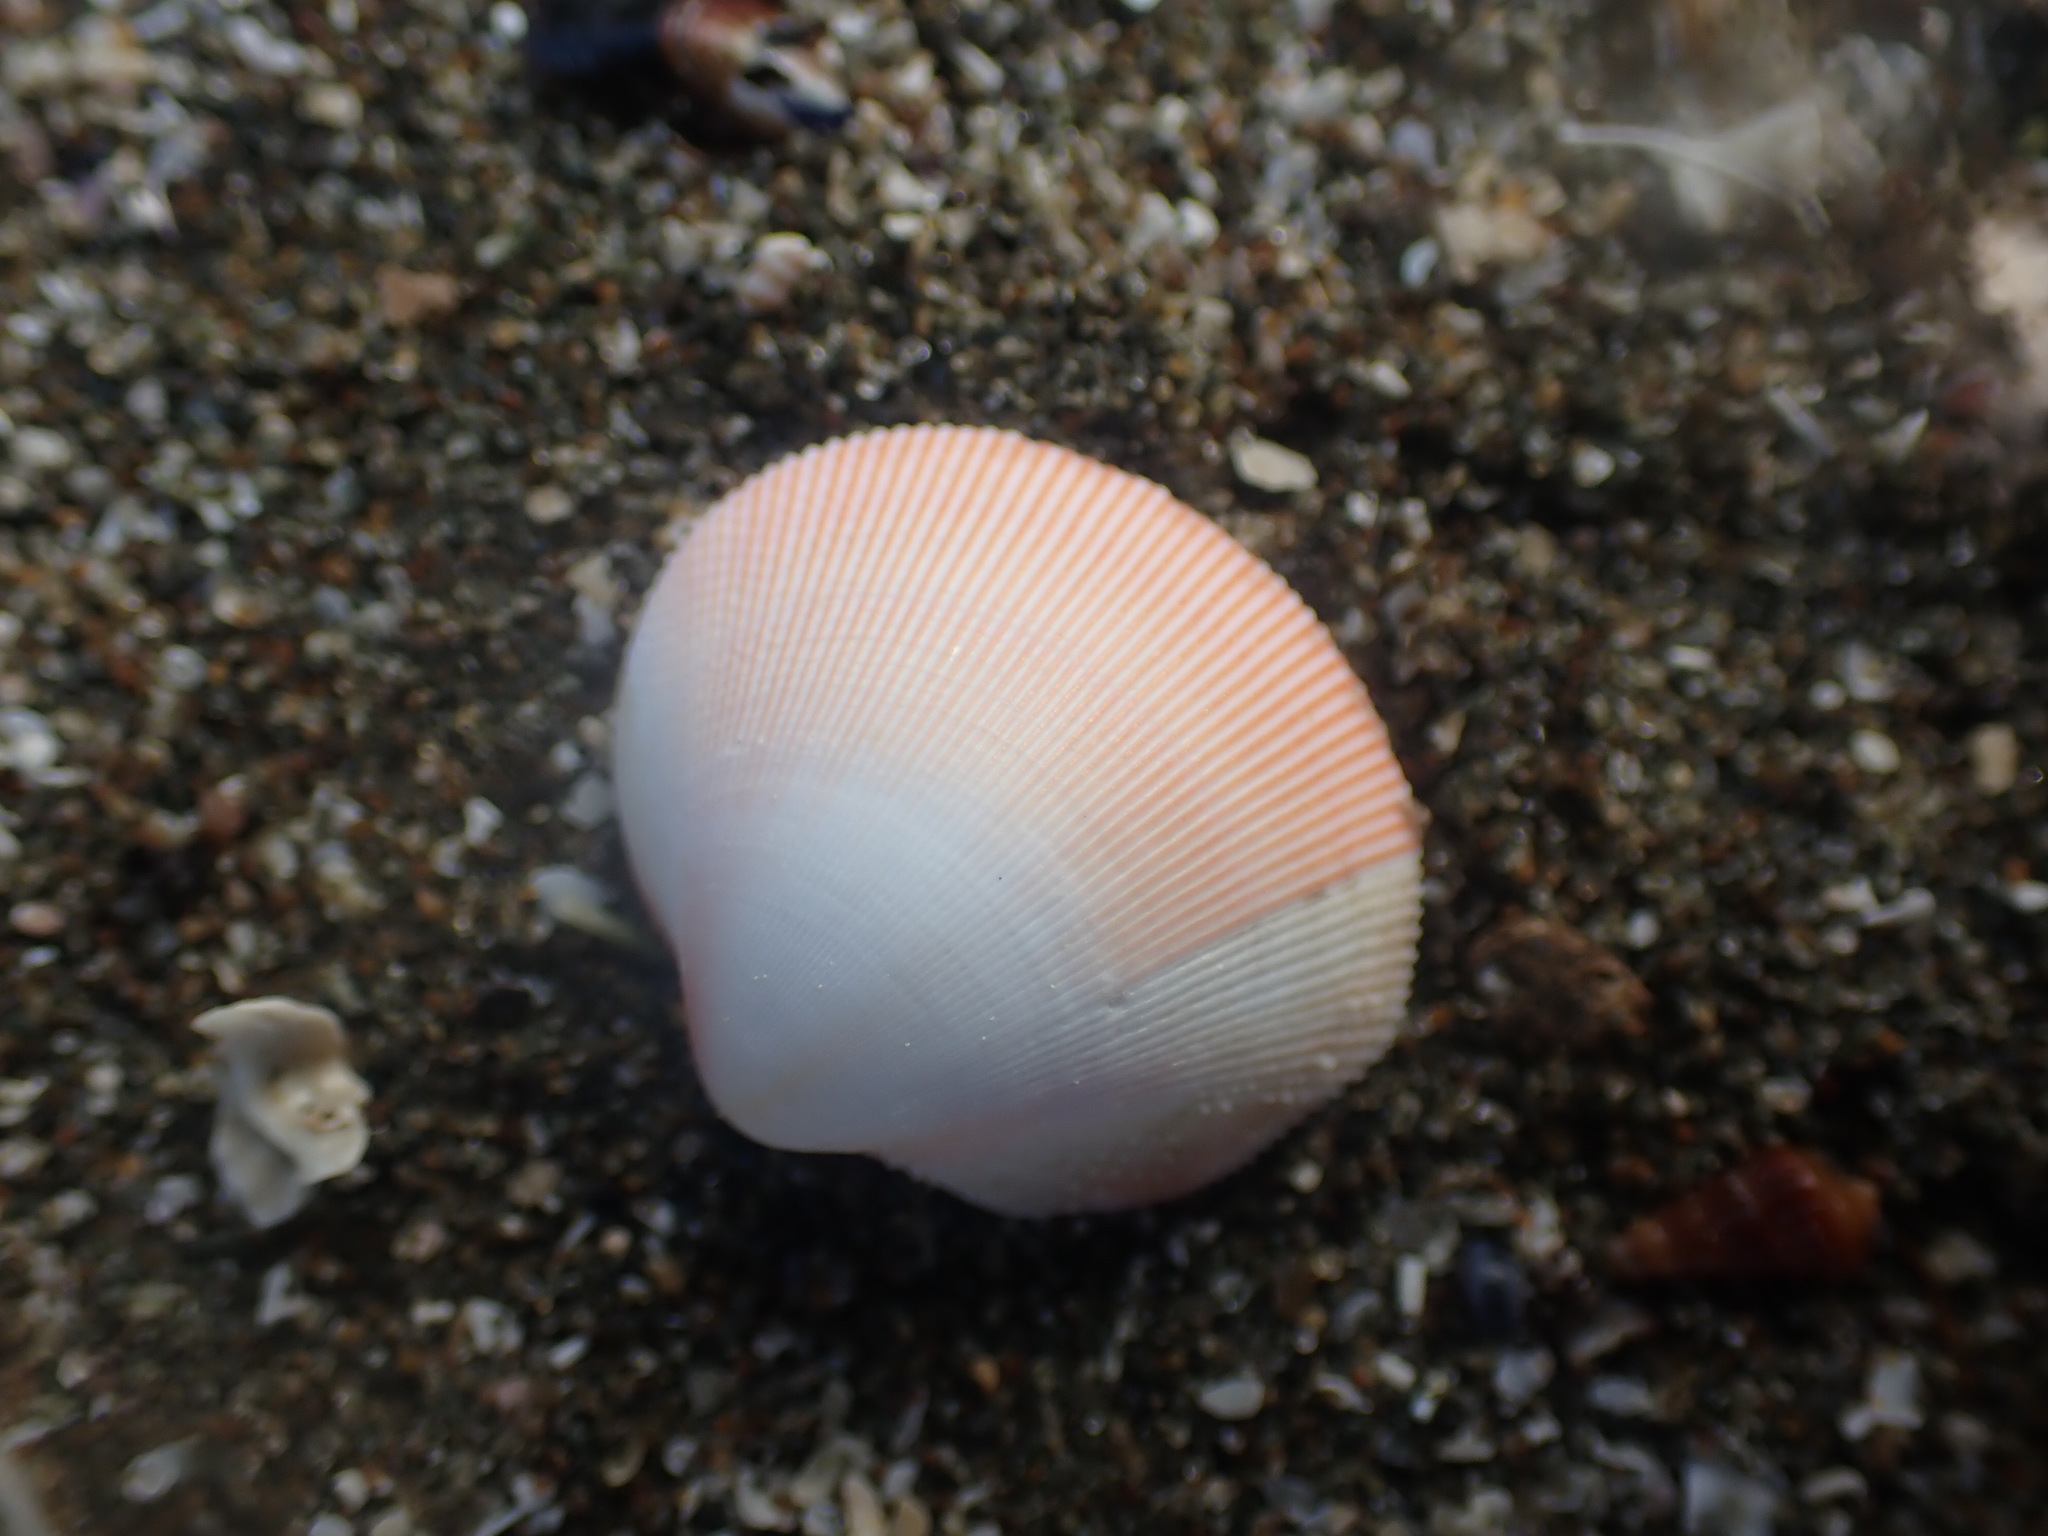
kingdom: Animalia
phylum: Mollusca
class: Bivalvia
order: Cardiida
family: Cardiidae
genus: Pratulum
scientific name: Pratulum pulchellum
